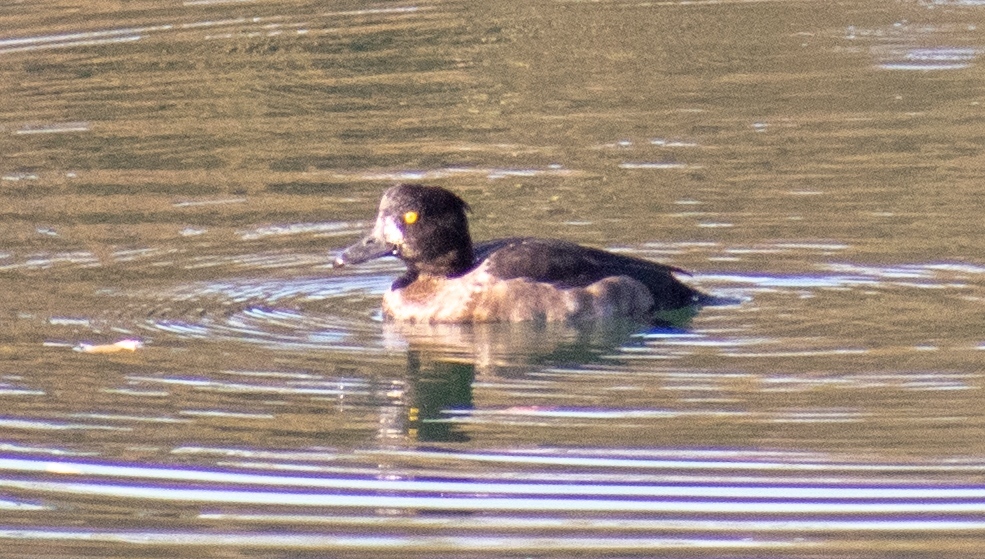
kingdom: Animalia
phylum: Chordata
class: Aves
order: Anseriformes
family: Anatidae
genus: Aythya
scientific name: Aythya fuligula
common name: Tufted duck
